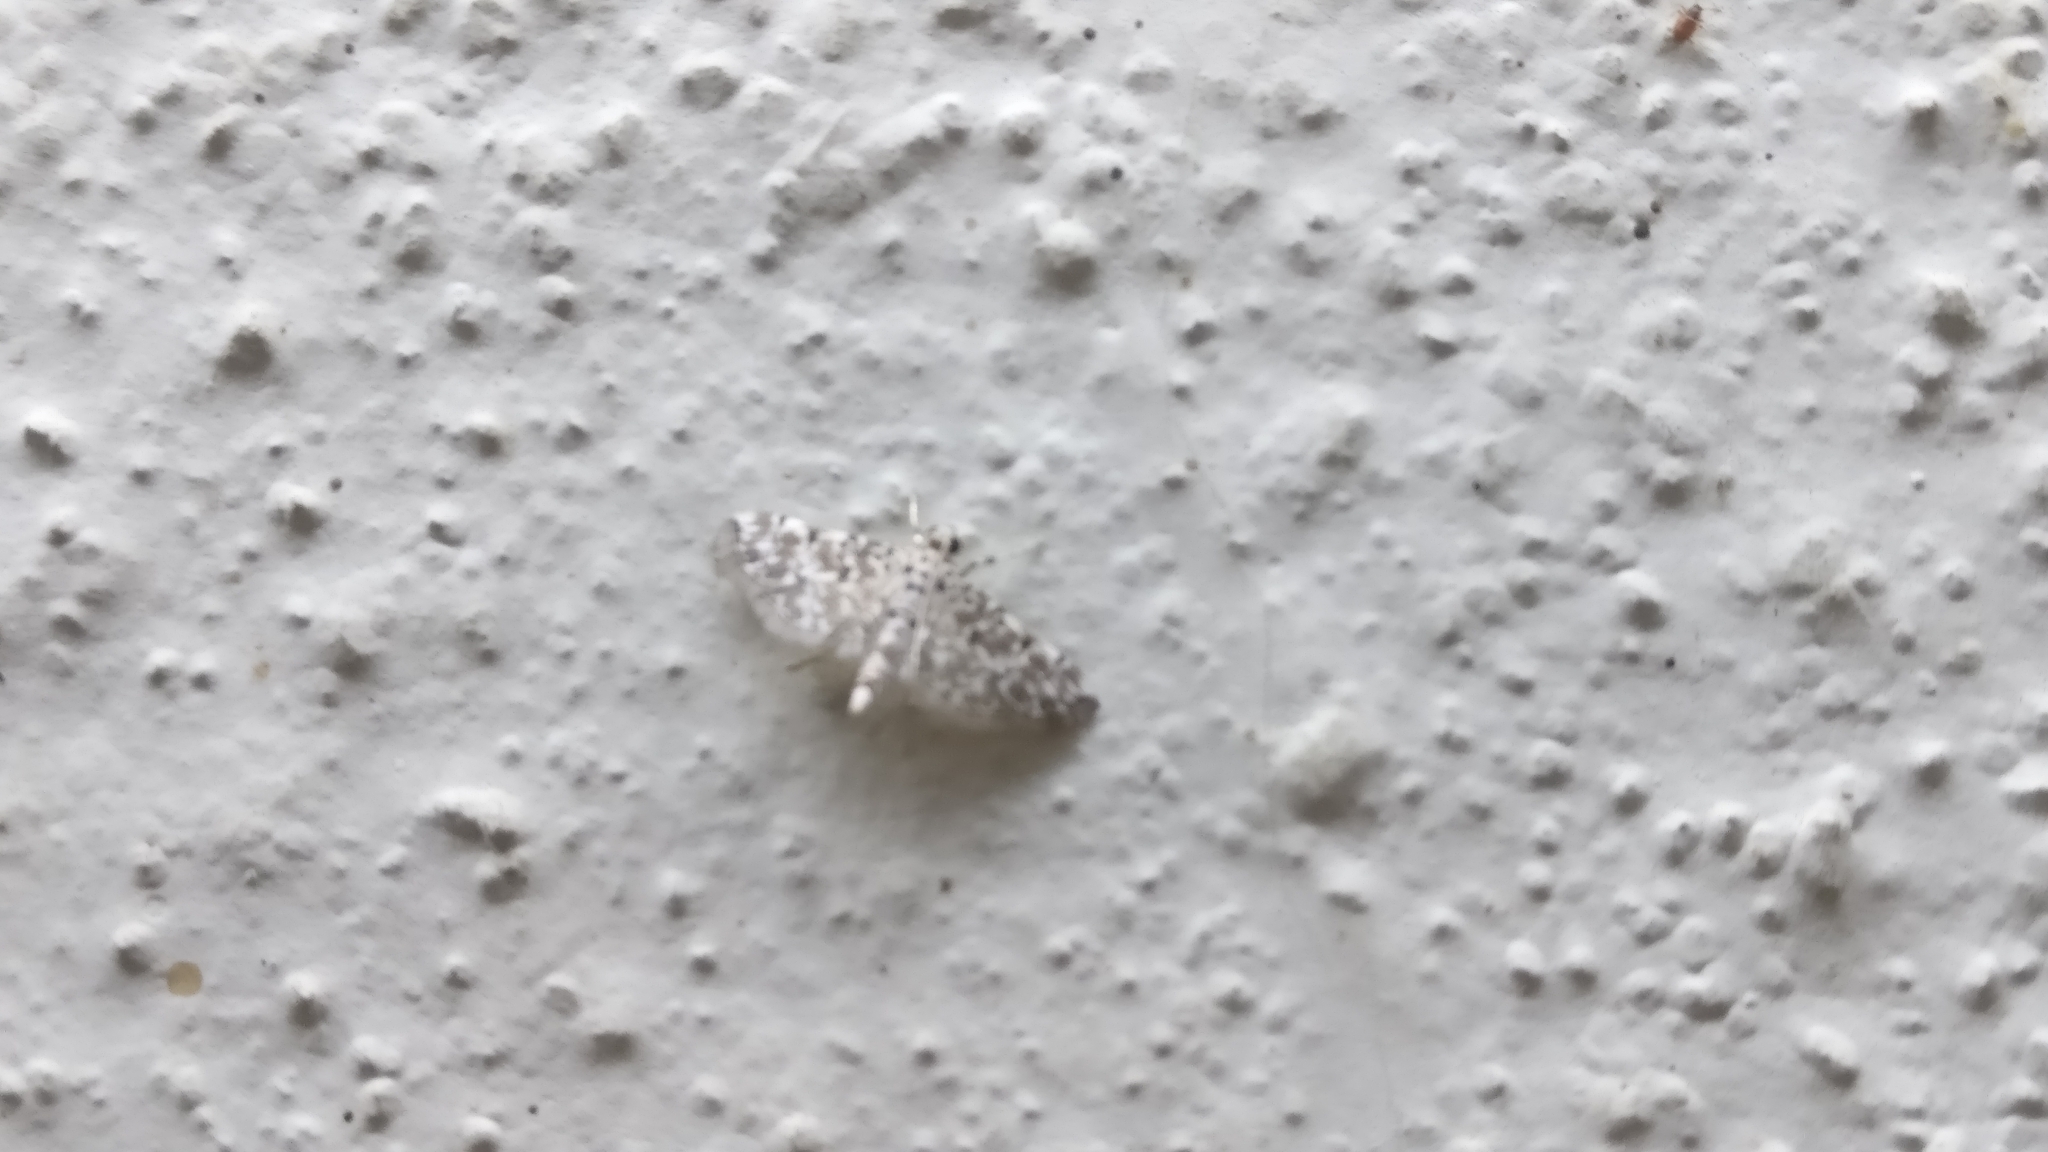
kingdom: Animalia
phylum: Arthropoda
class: Insecta
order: Lepidoptera
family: Crambidae
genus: Metoeca
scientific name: Metoeca foedalis
